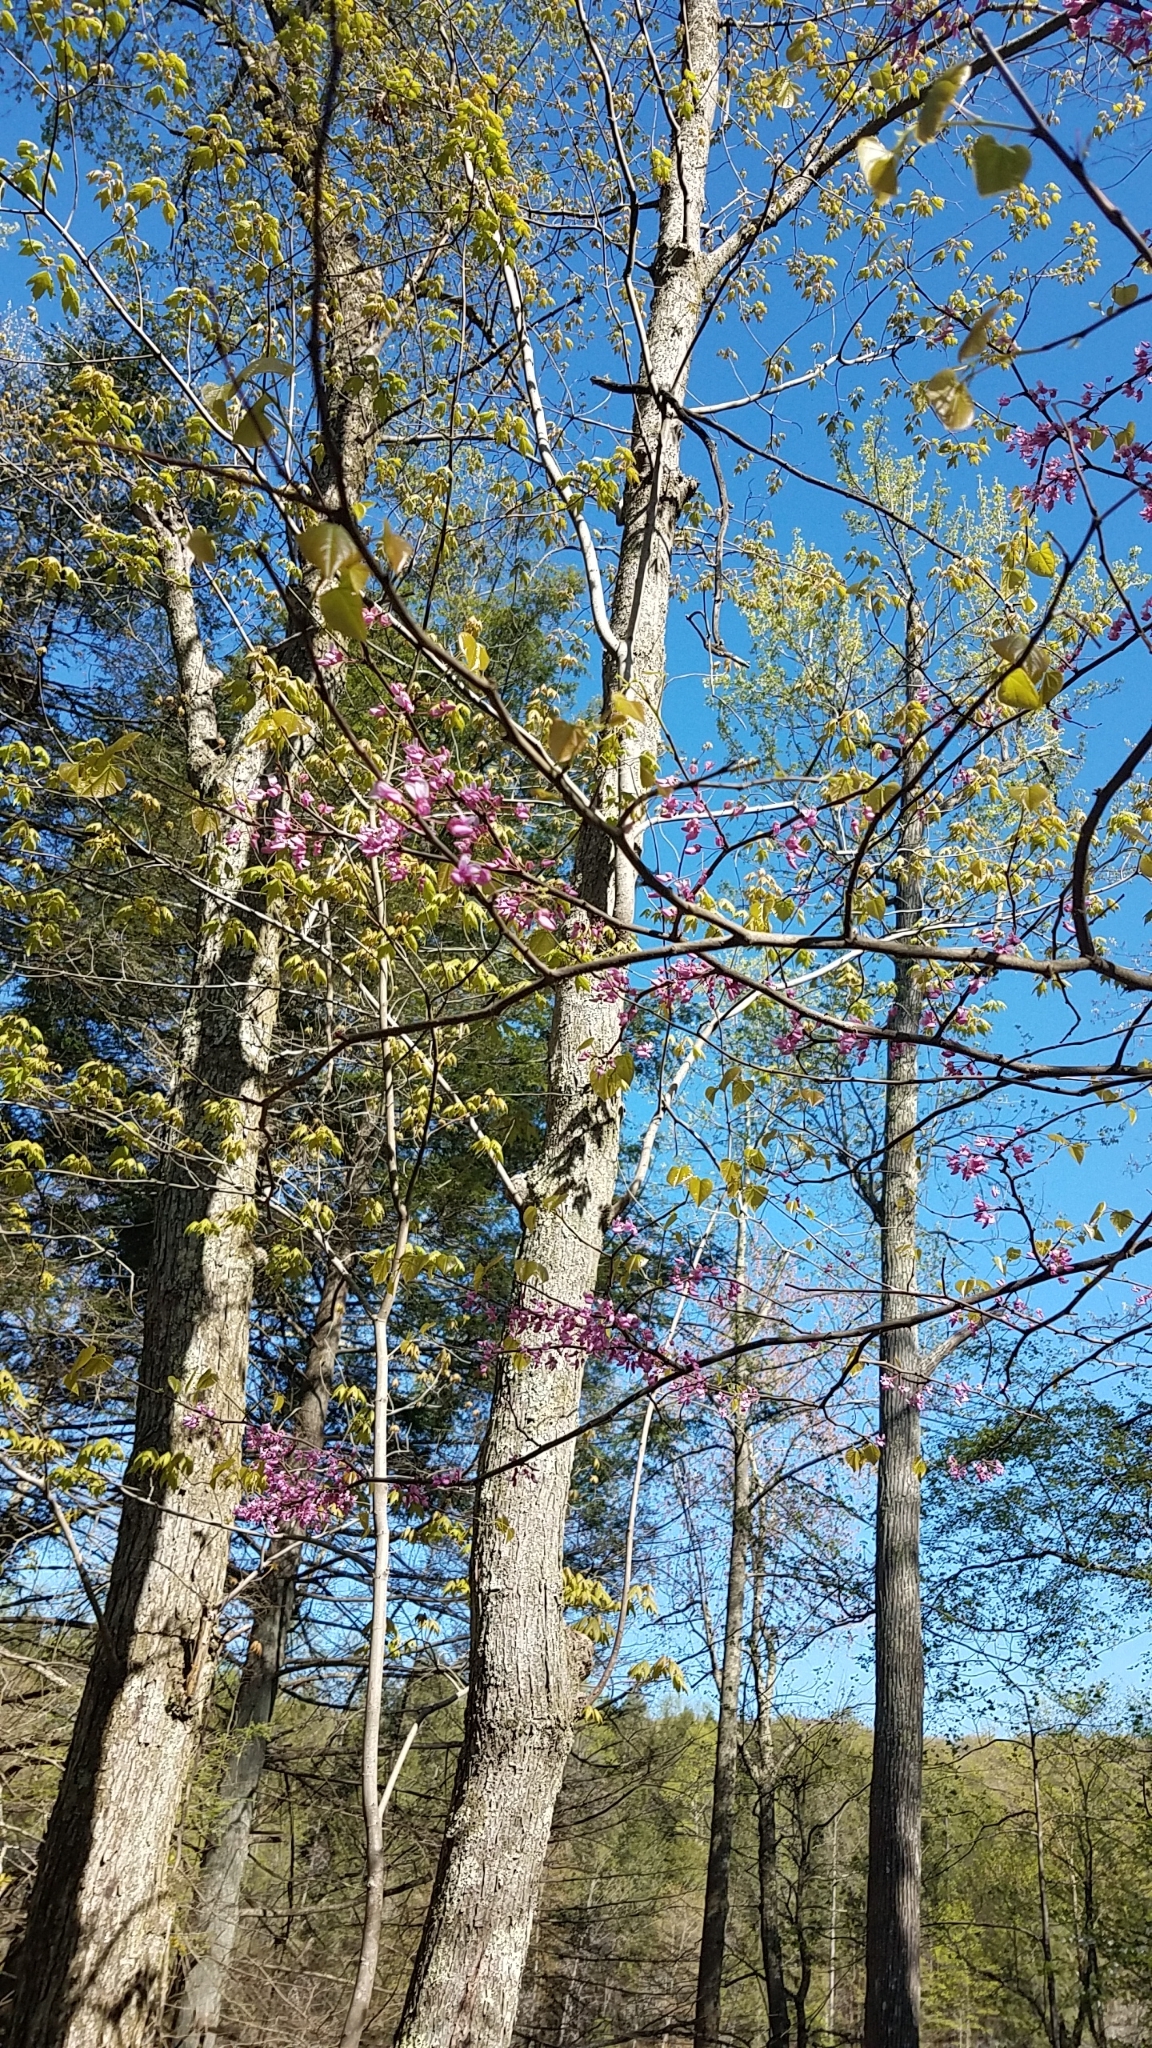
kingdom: Plantae
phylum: Tracheophyta
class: Magnoliopsida
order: Fabales
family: Fabaceae
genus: Cercis
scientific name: Cercis canadensis
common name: Eastern redbud
